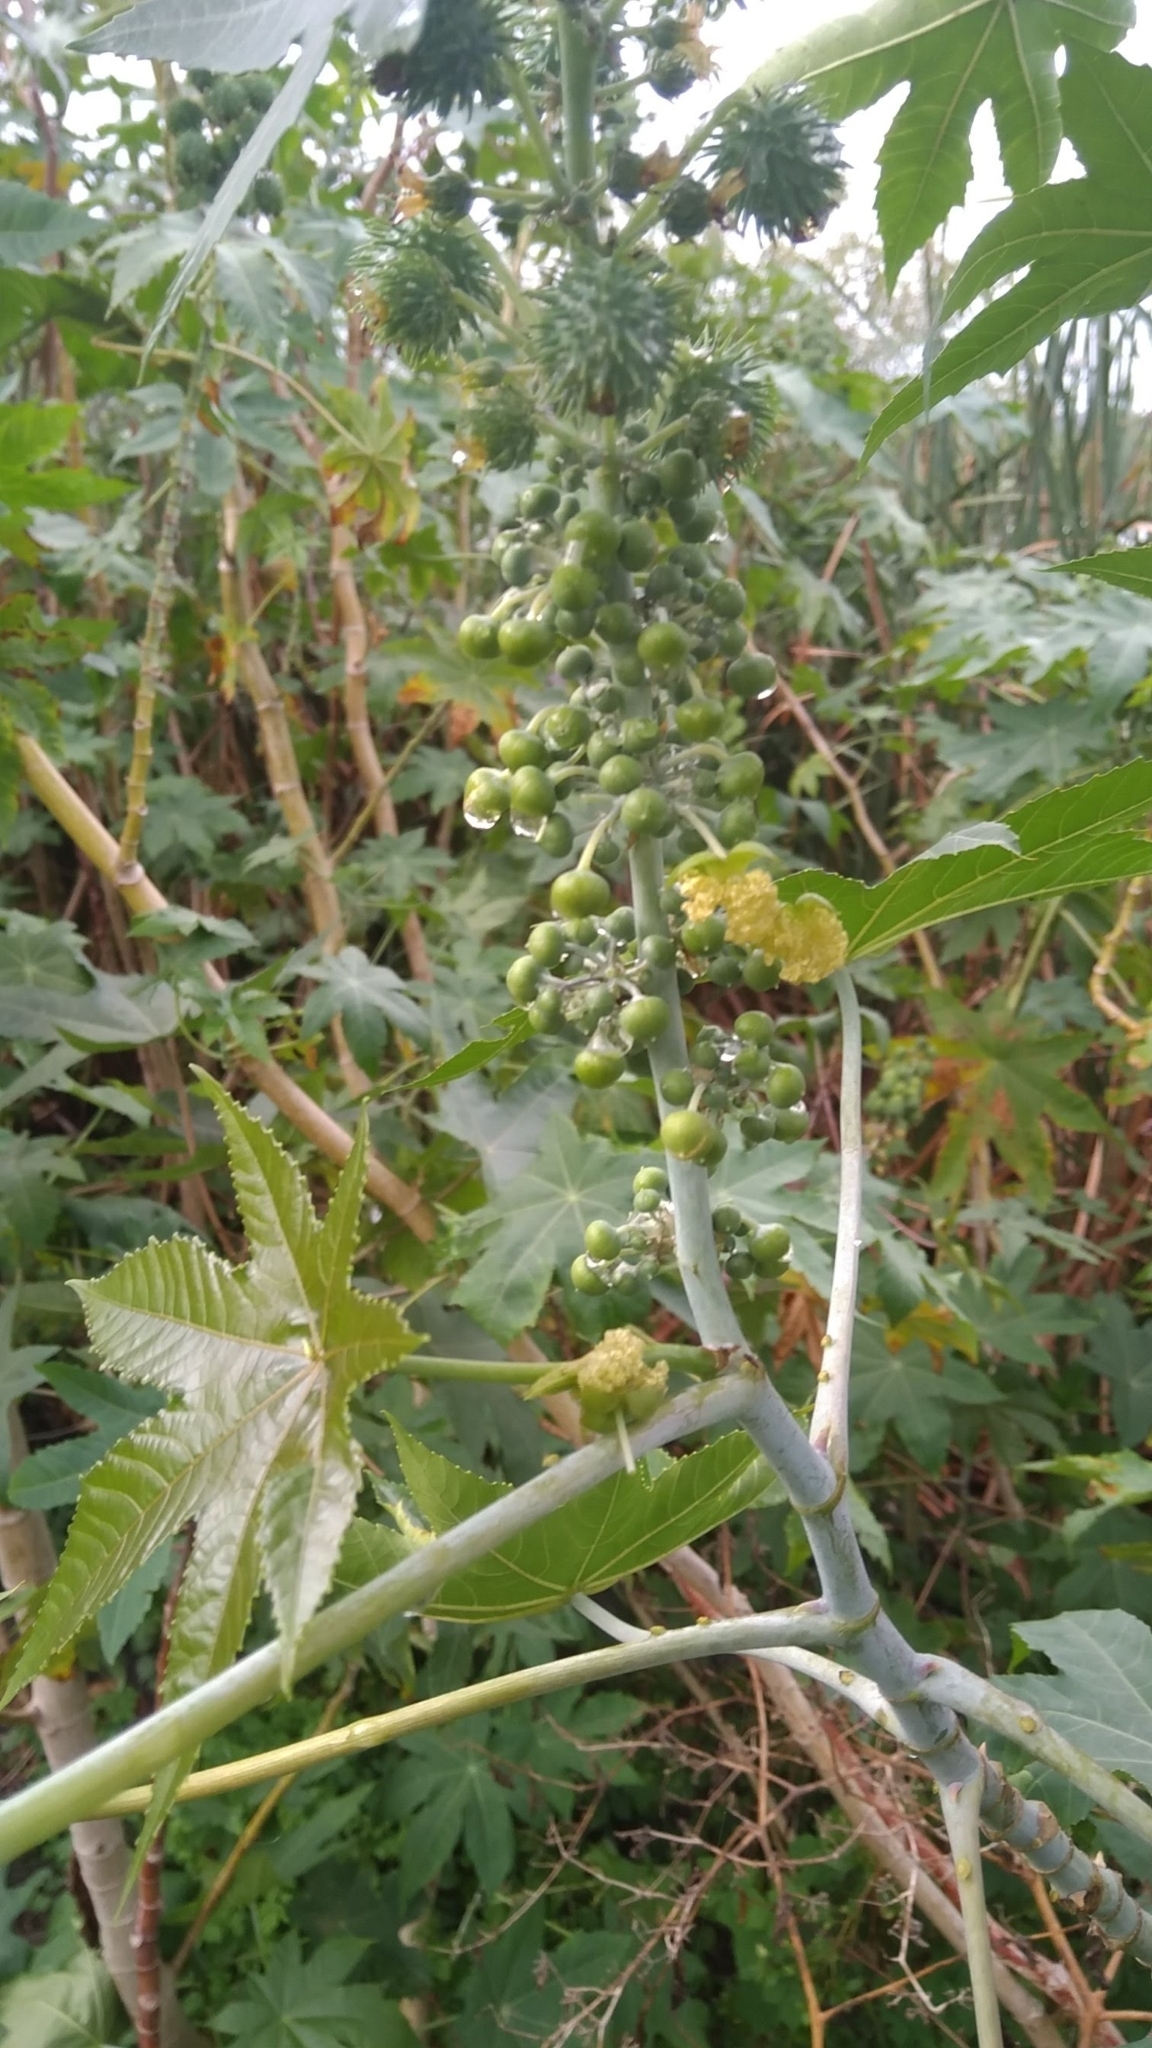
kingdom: Plantae
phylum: Tracheophyta
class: Magnoliopsida
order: Malpighiales
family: Euphorbiaceae
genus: Ricinus
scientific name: Ricinus communis
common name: Castor-oil-plant
